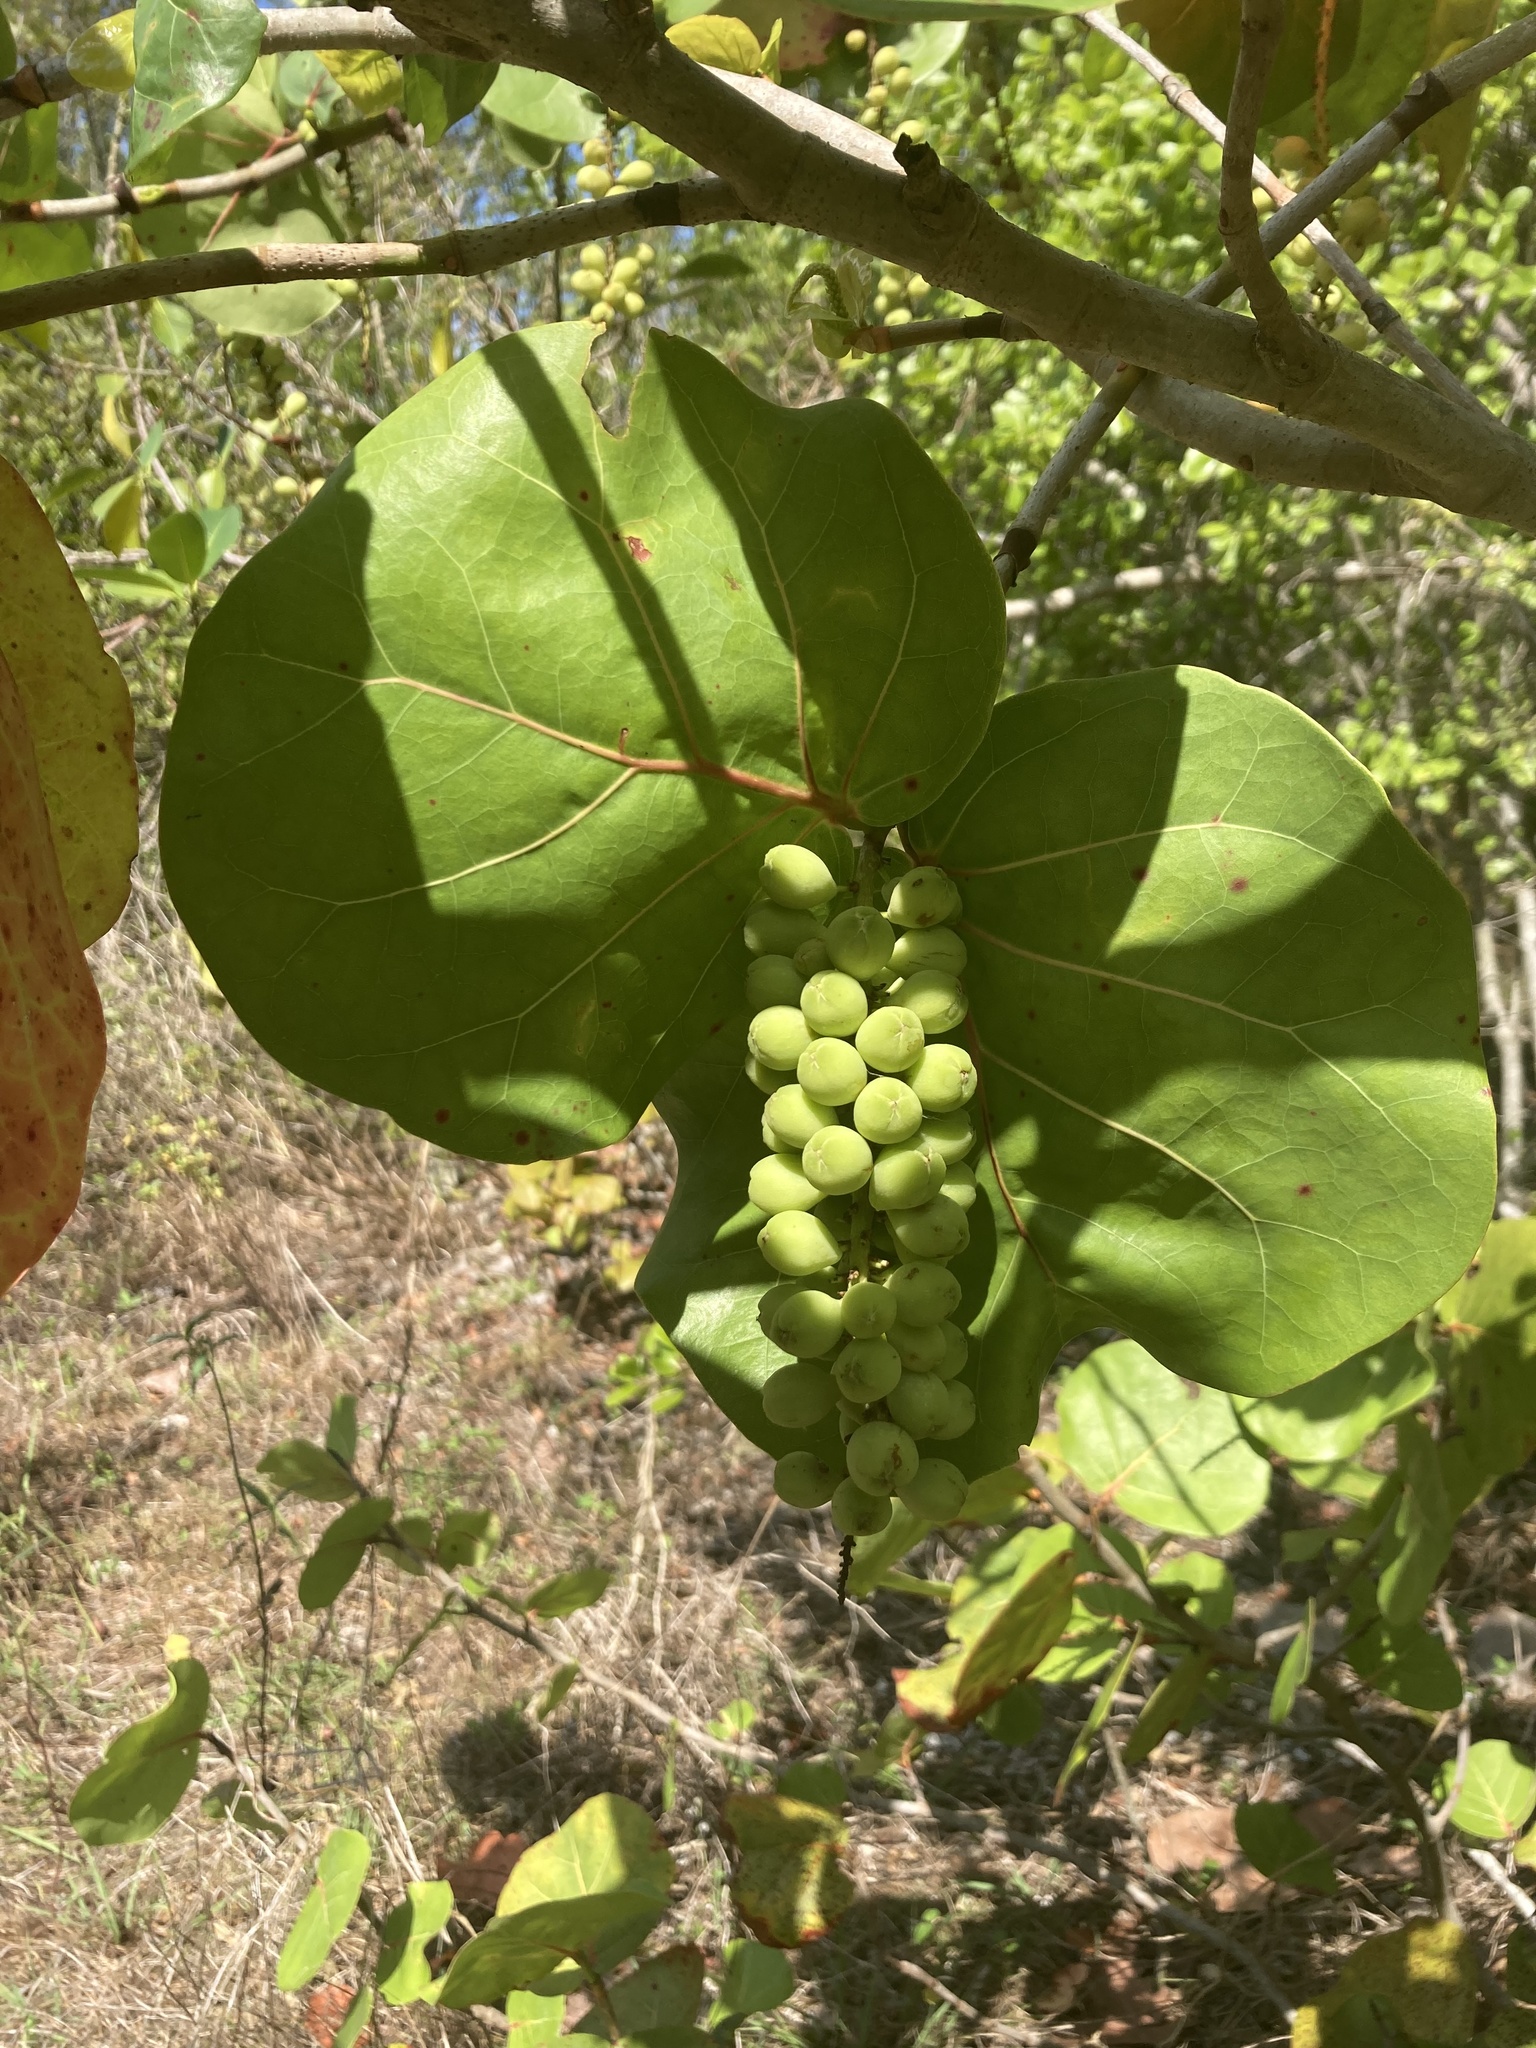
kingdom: Plantae
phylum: Tracheophyta
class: Magnoliopsida
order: Caryophyllales
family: Polygonaceae
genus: Coccoloba
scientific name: Coccoloba uvifera
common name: Seagrape
